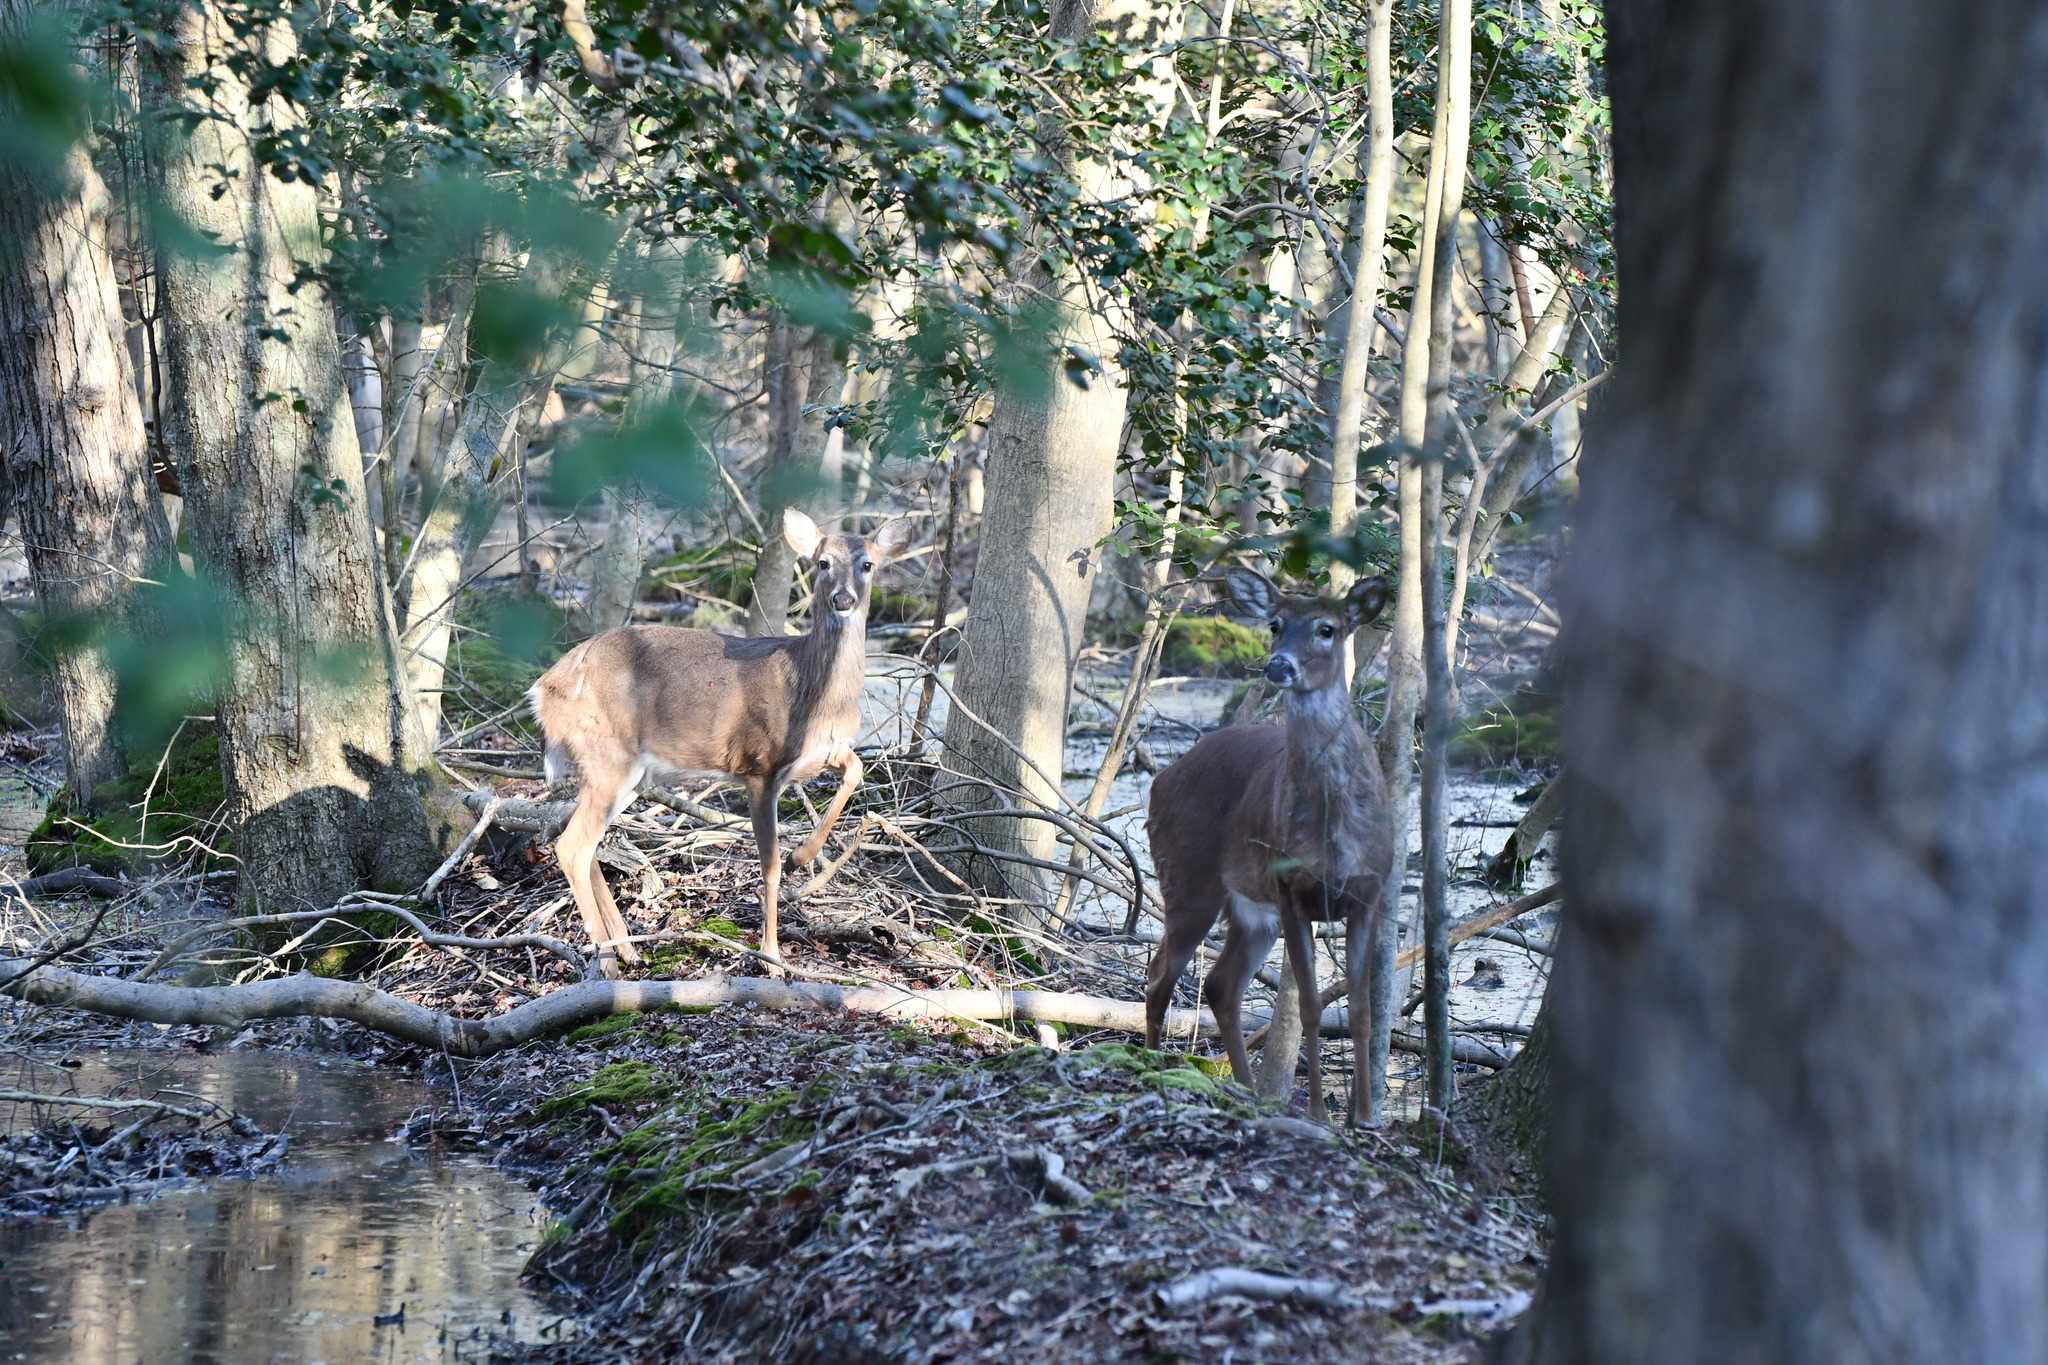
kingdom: Animalia
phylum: Chordata
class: Mammalia
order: Artiodactyla
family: Cervidae
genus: Odocoileus
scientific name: Odocoileus virginianus
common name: White-tailed deer
